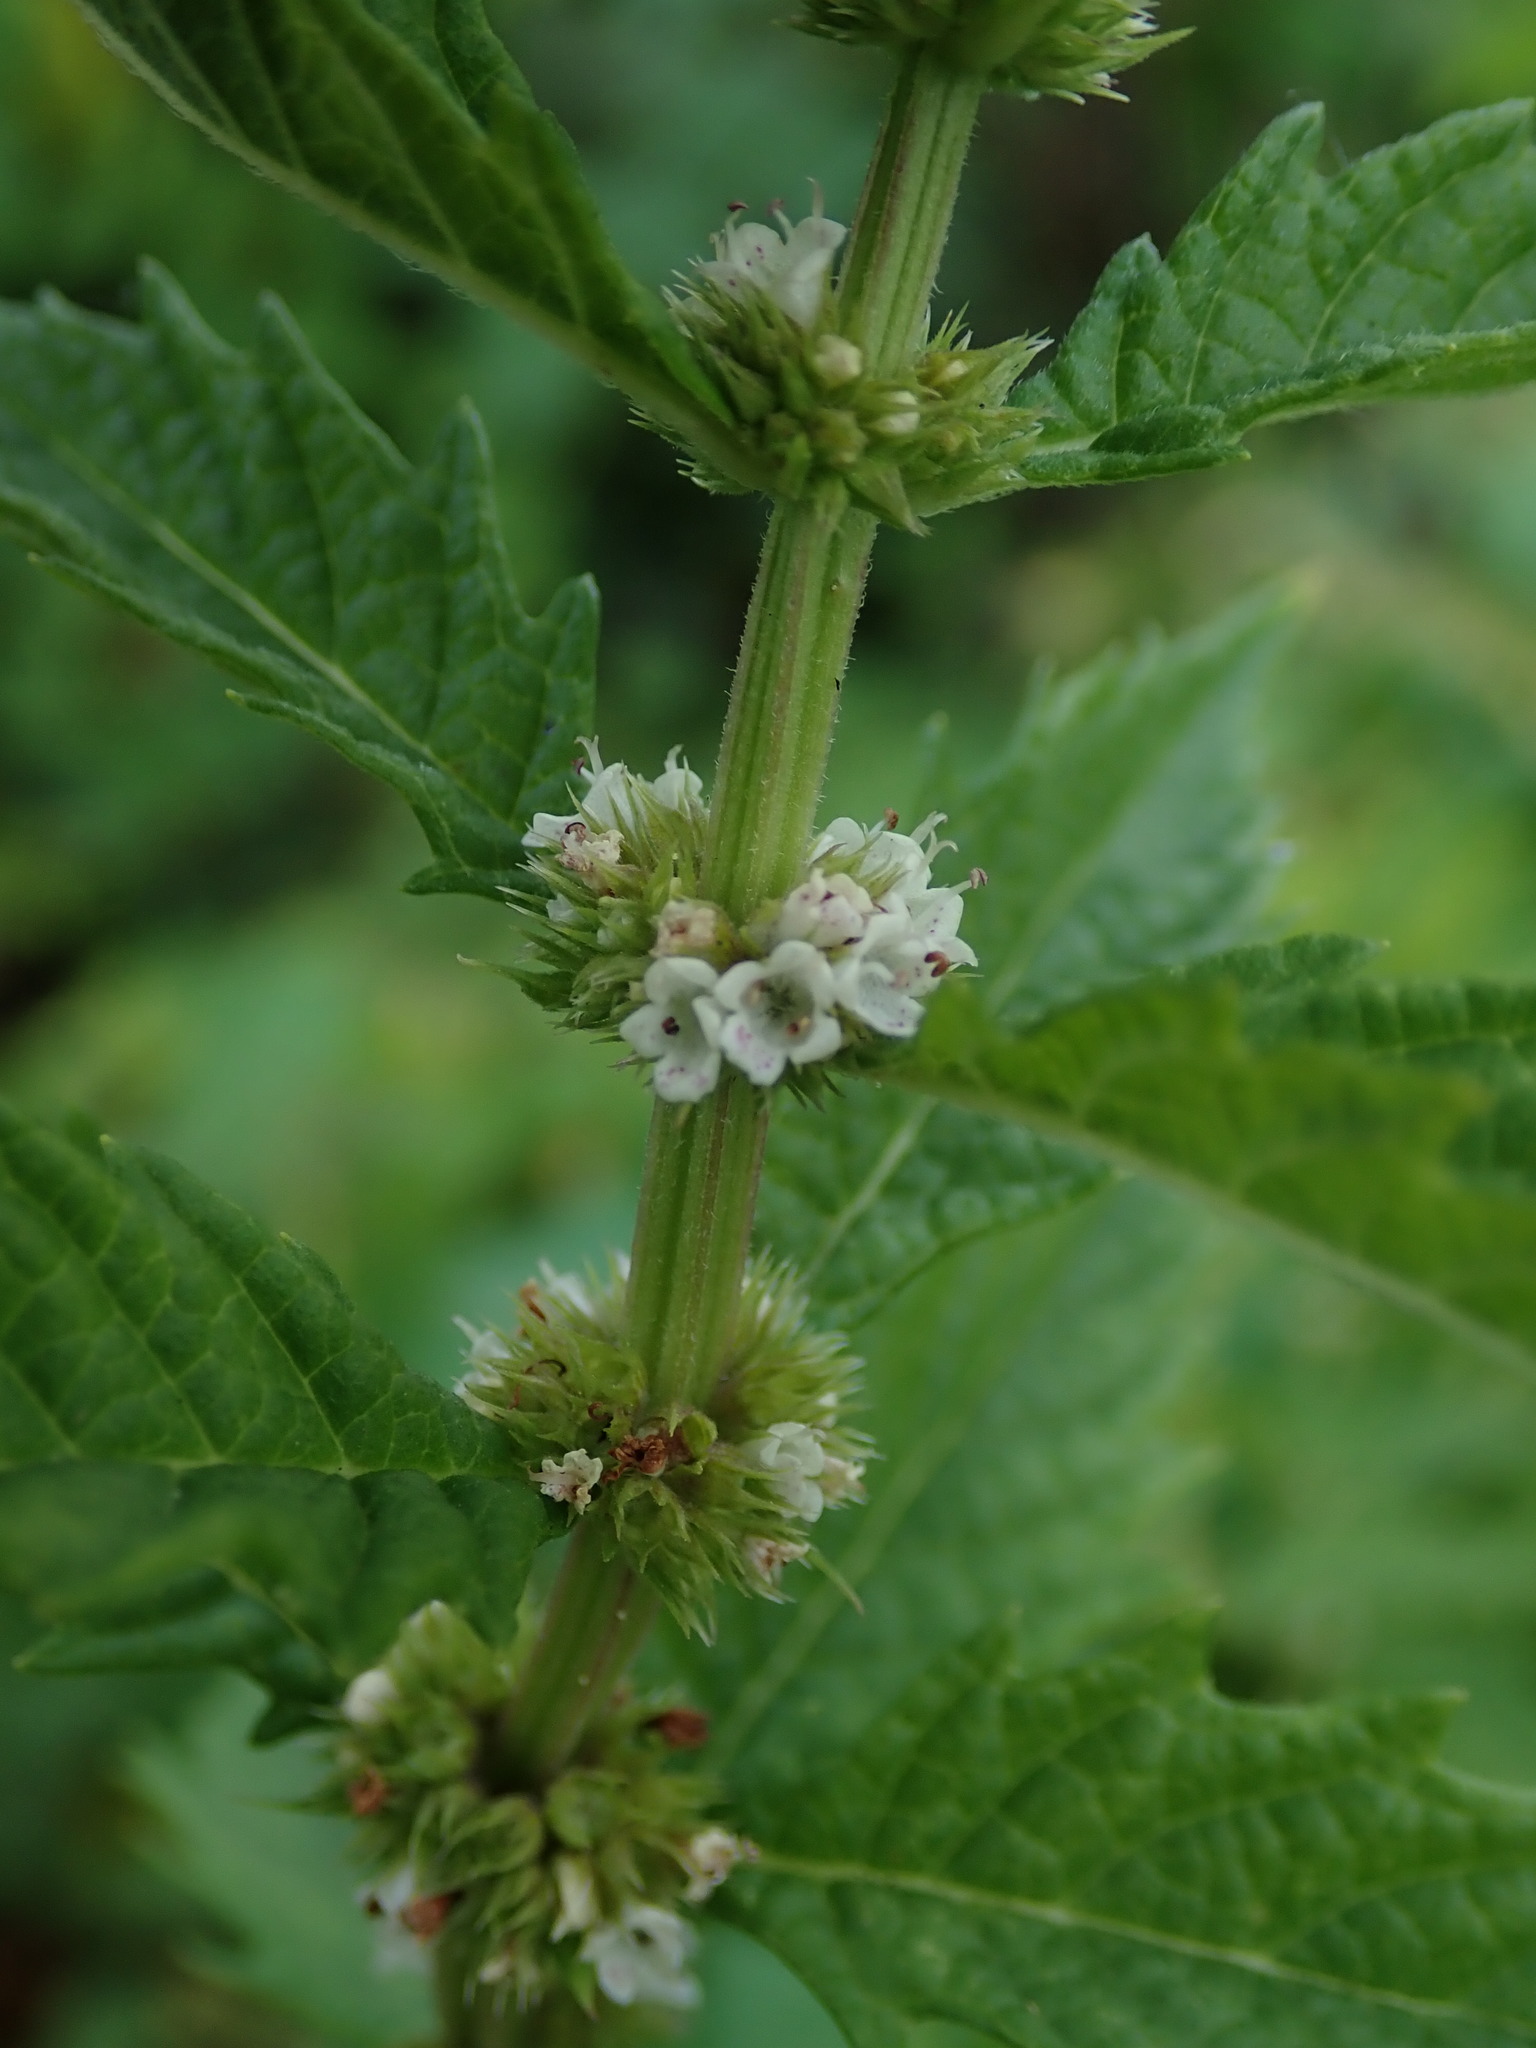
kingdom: Plantae
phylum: Tracheophyta
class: Magnoliopsida
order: Lamiales
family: Lamiaceae
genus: Lycopus
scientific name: Lycopus europaeus
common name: European bugleweed
